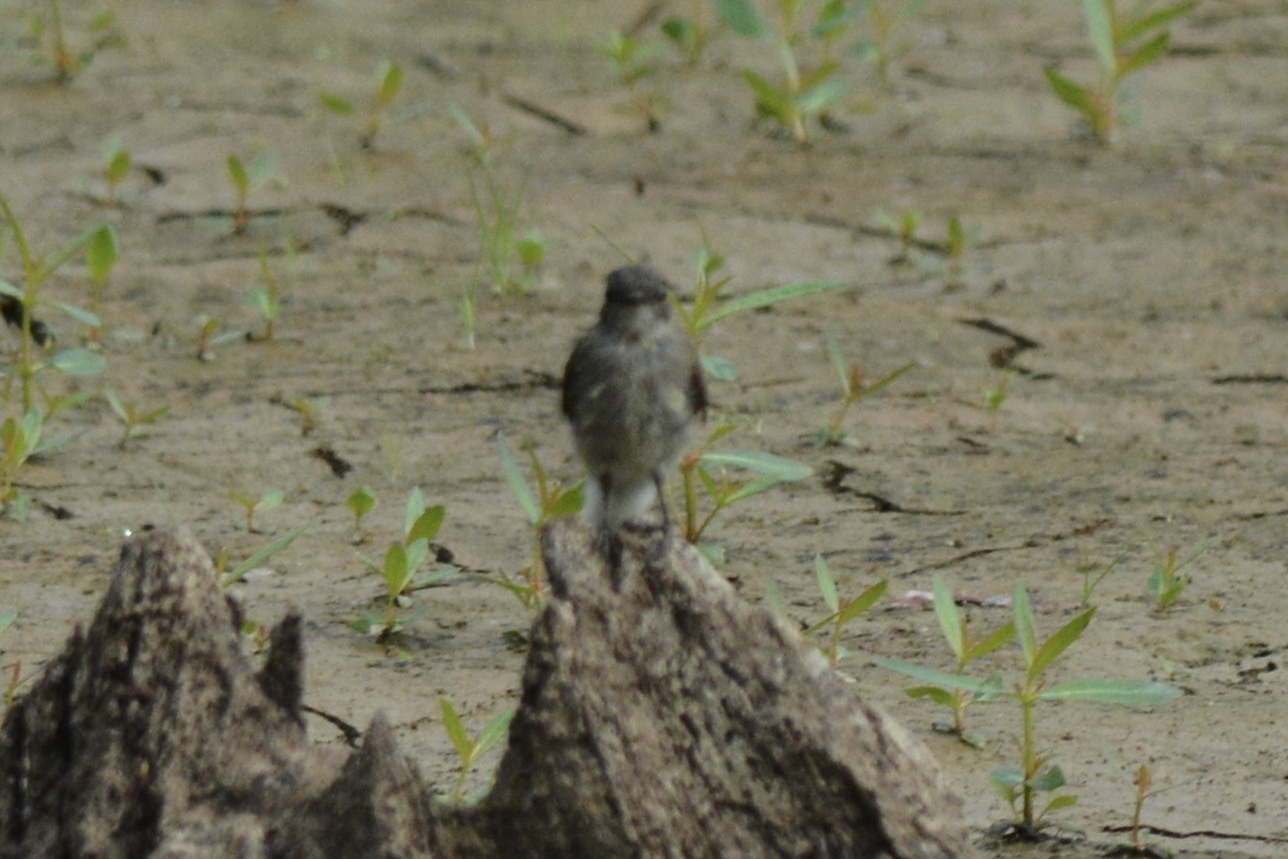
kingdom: Animalia
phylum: Chordata
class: Aves
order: Passeriformes
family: Tyrannidae
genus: Sayornis
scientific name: Sayornis phoebe
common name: Eastern phoebe
